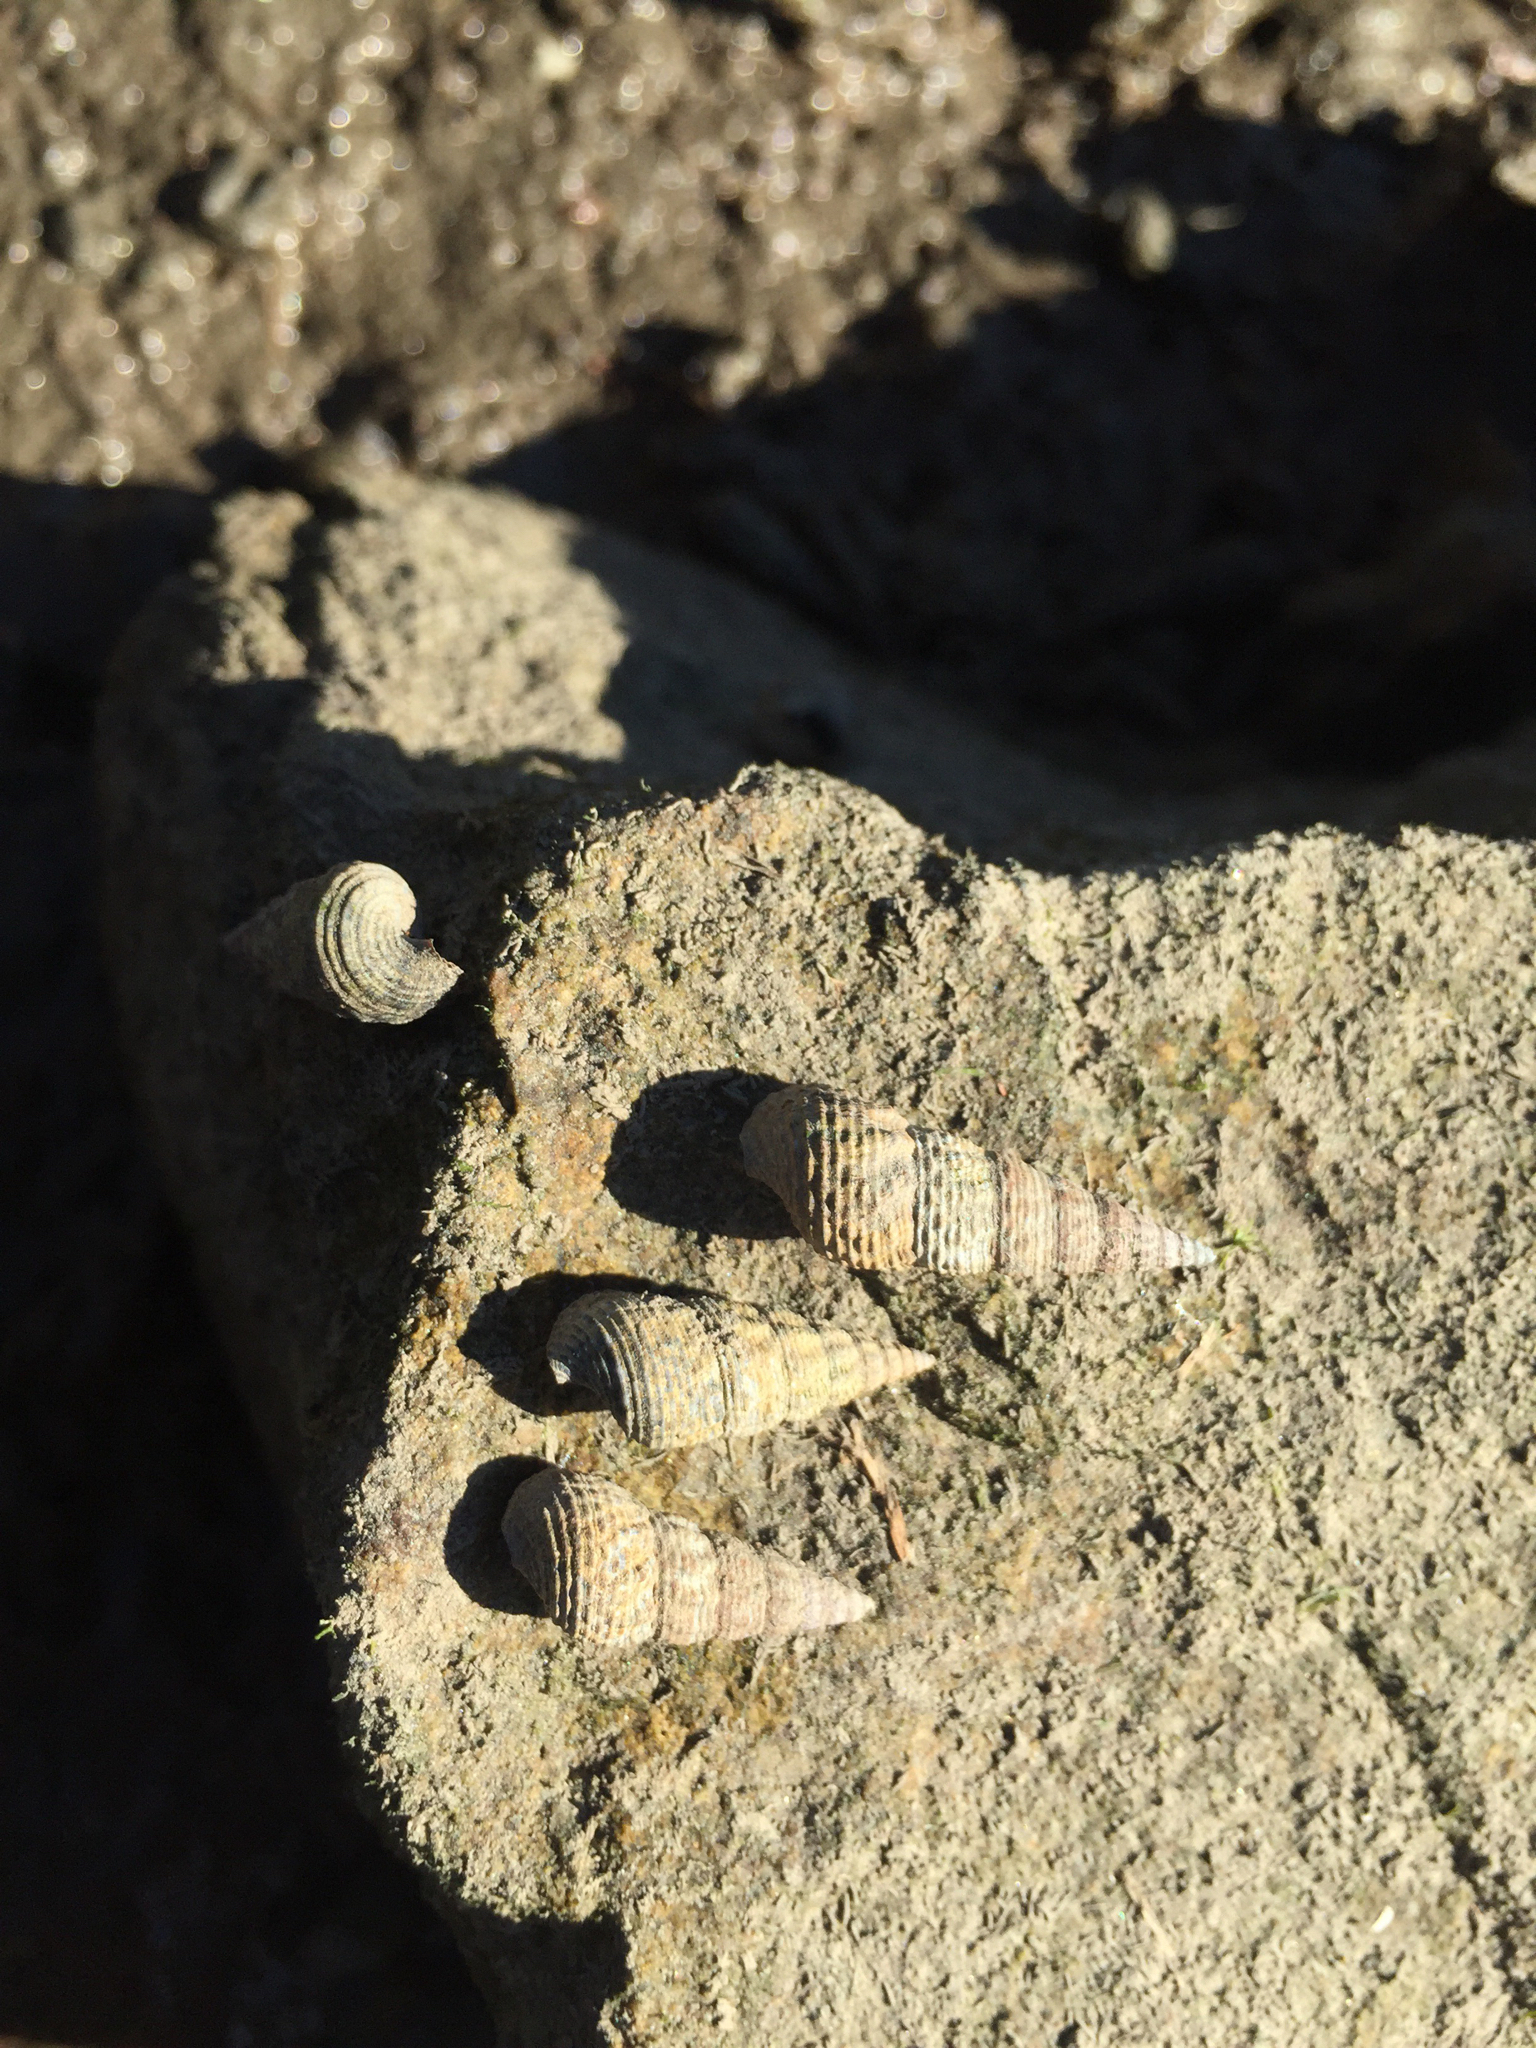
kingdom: Animalia
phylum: Mollusca
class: Gastropoda
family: Batillariidae
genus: Batillaria
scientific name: Batillaria attramentaria
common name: Japanese false cerith
